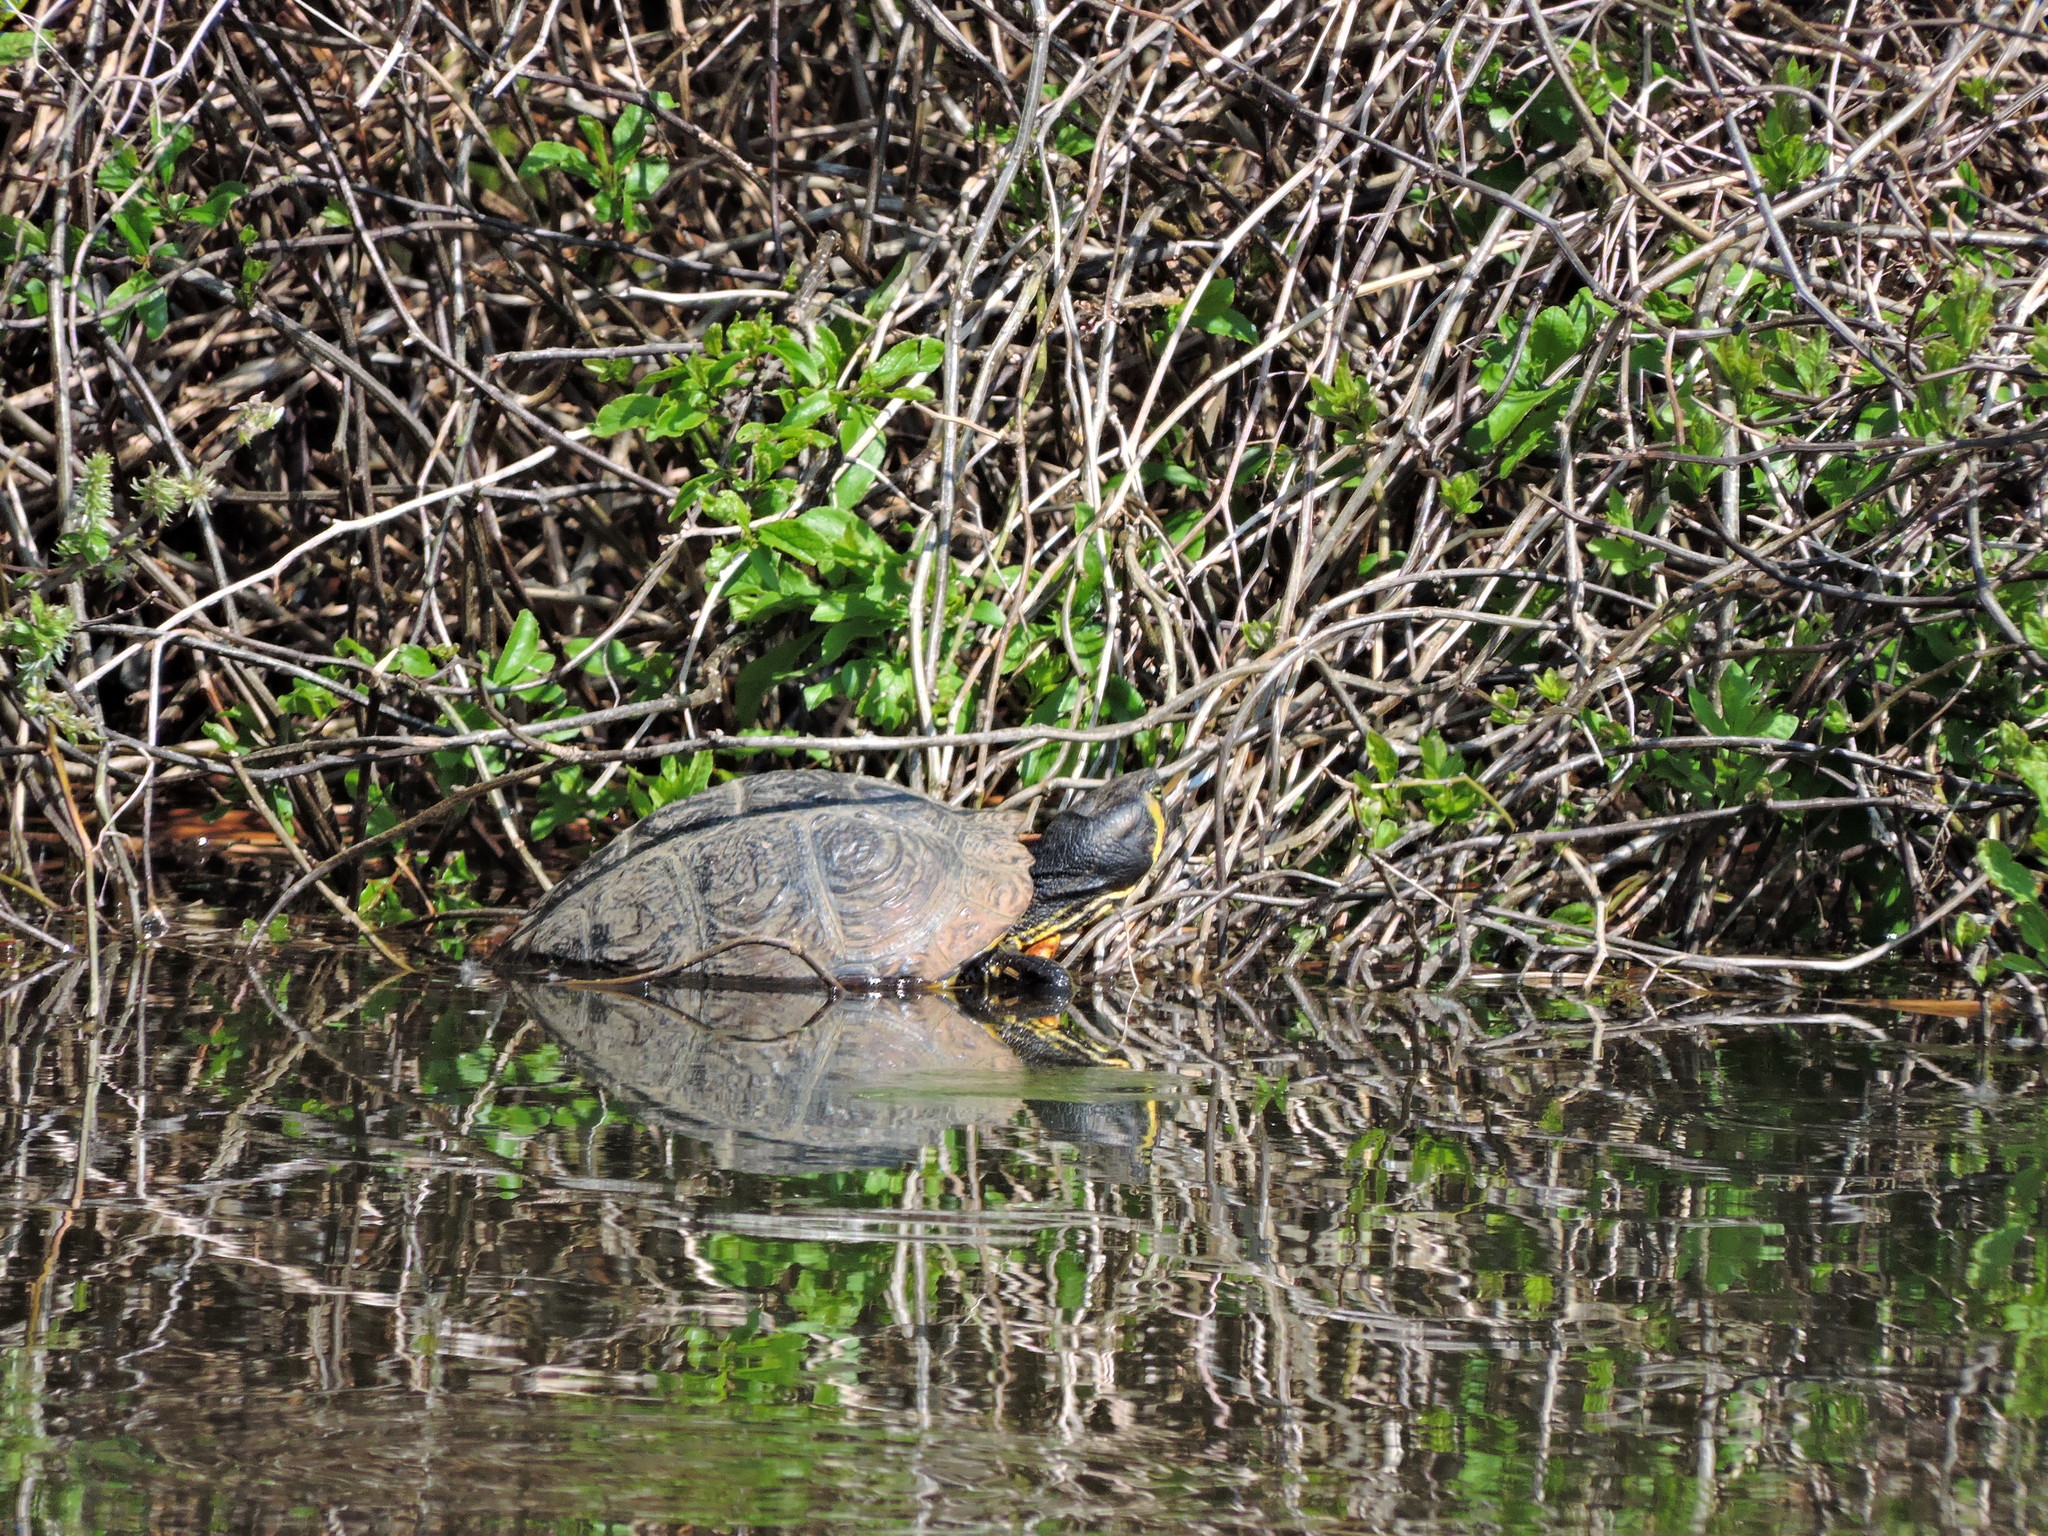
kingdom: Animalia
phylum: Chordata
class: Testudines
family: Emydidae
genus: Trachemys
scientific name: Trachemys scripta
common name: Slider
